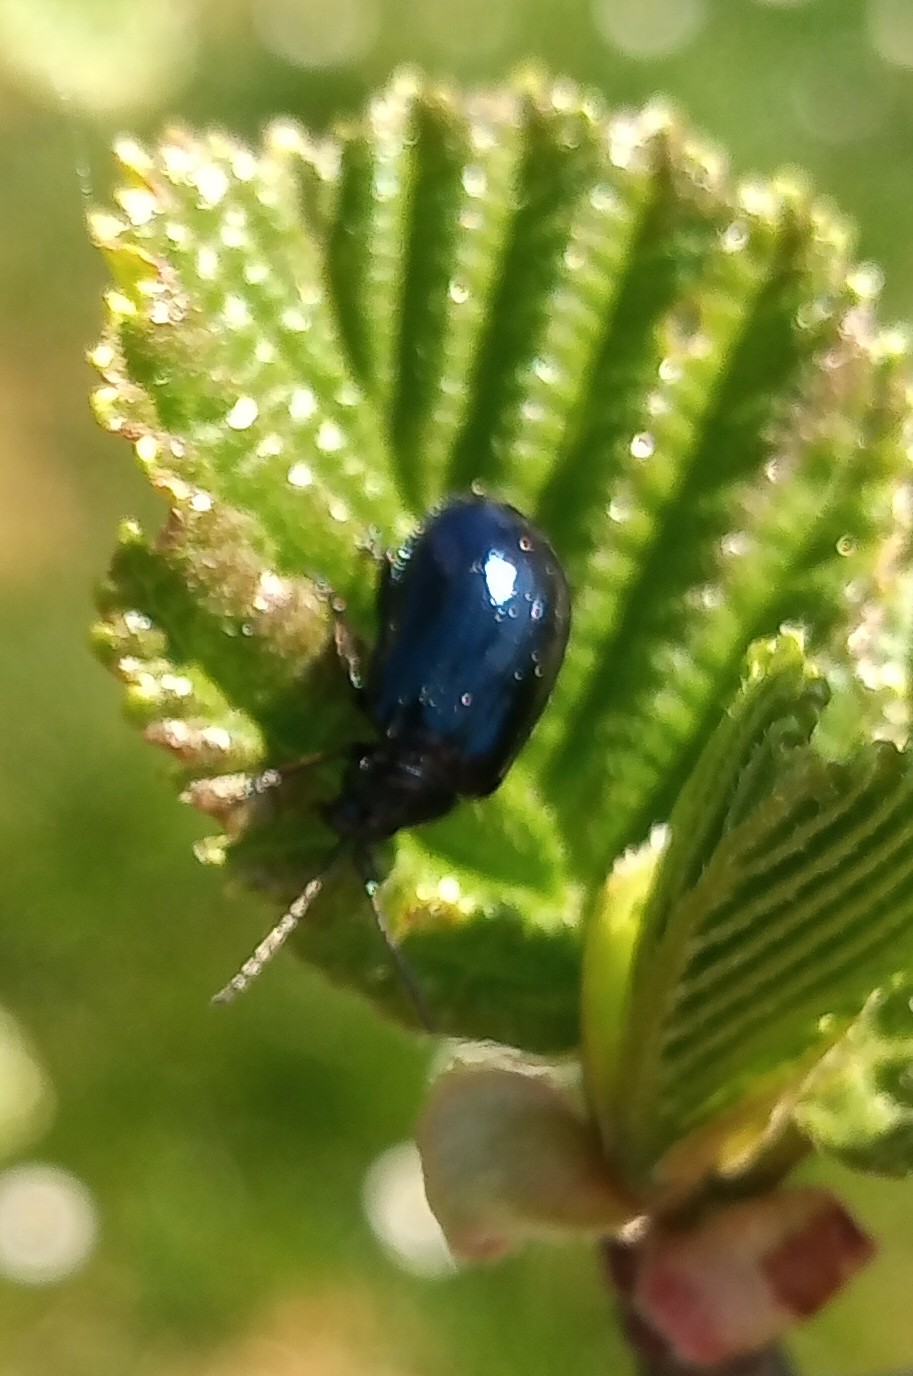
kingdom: Animalia
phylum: Arthropoda
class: Insecta
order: Coleoptera
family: Chrysomelidae
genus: Agelastica
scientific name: Agelastica alni
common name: Alder leaf beetle
